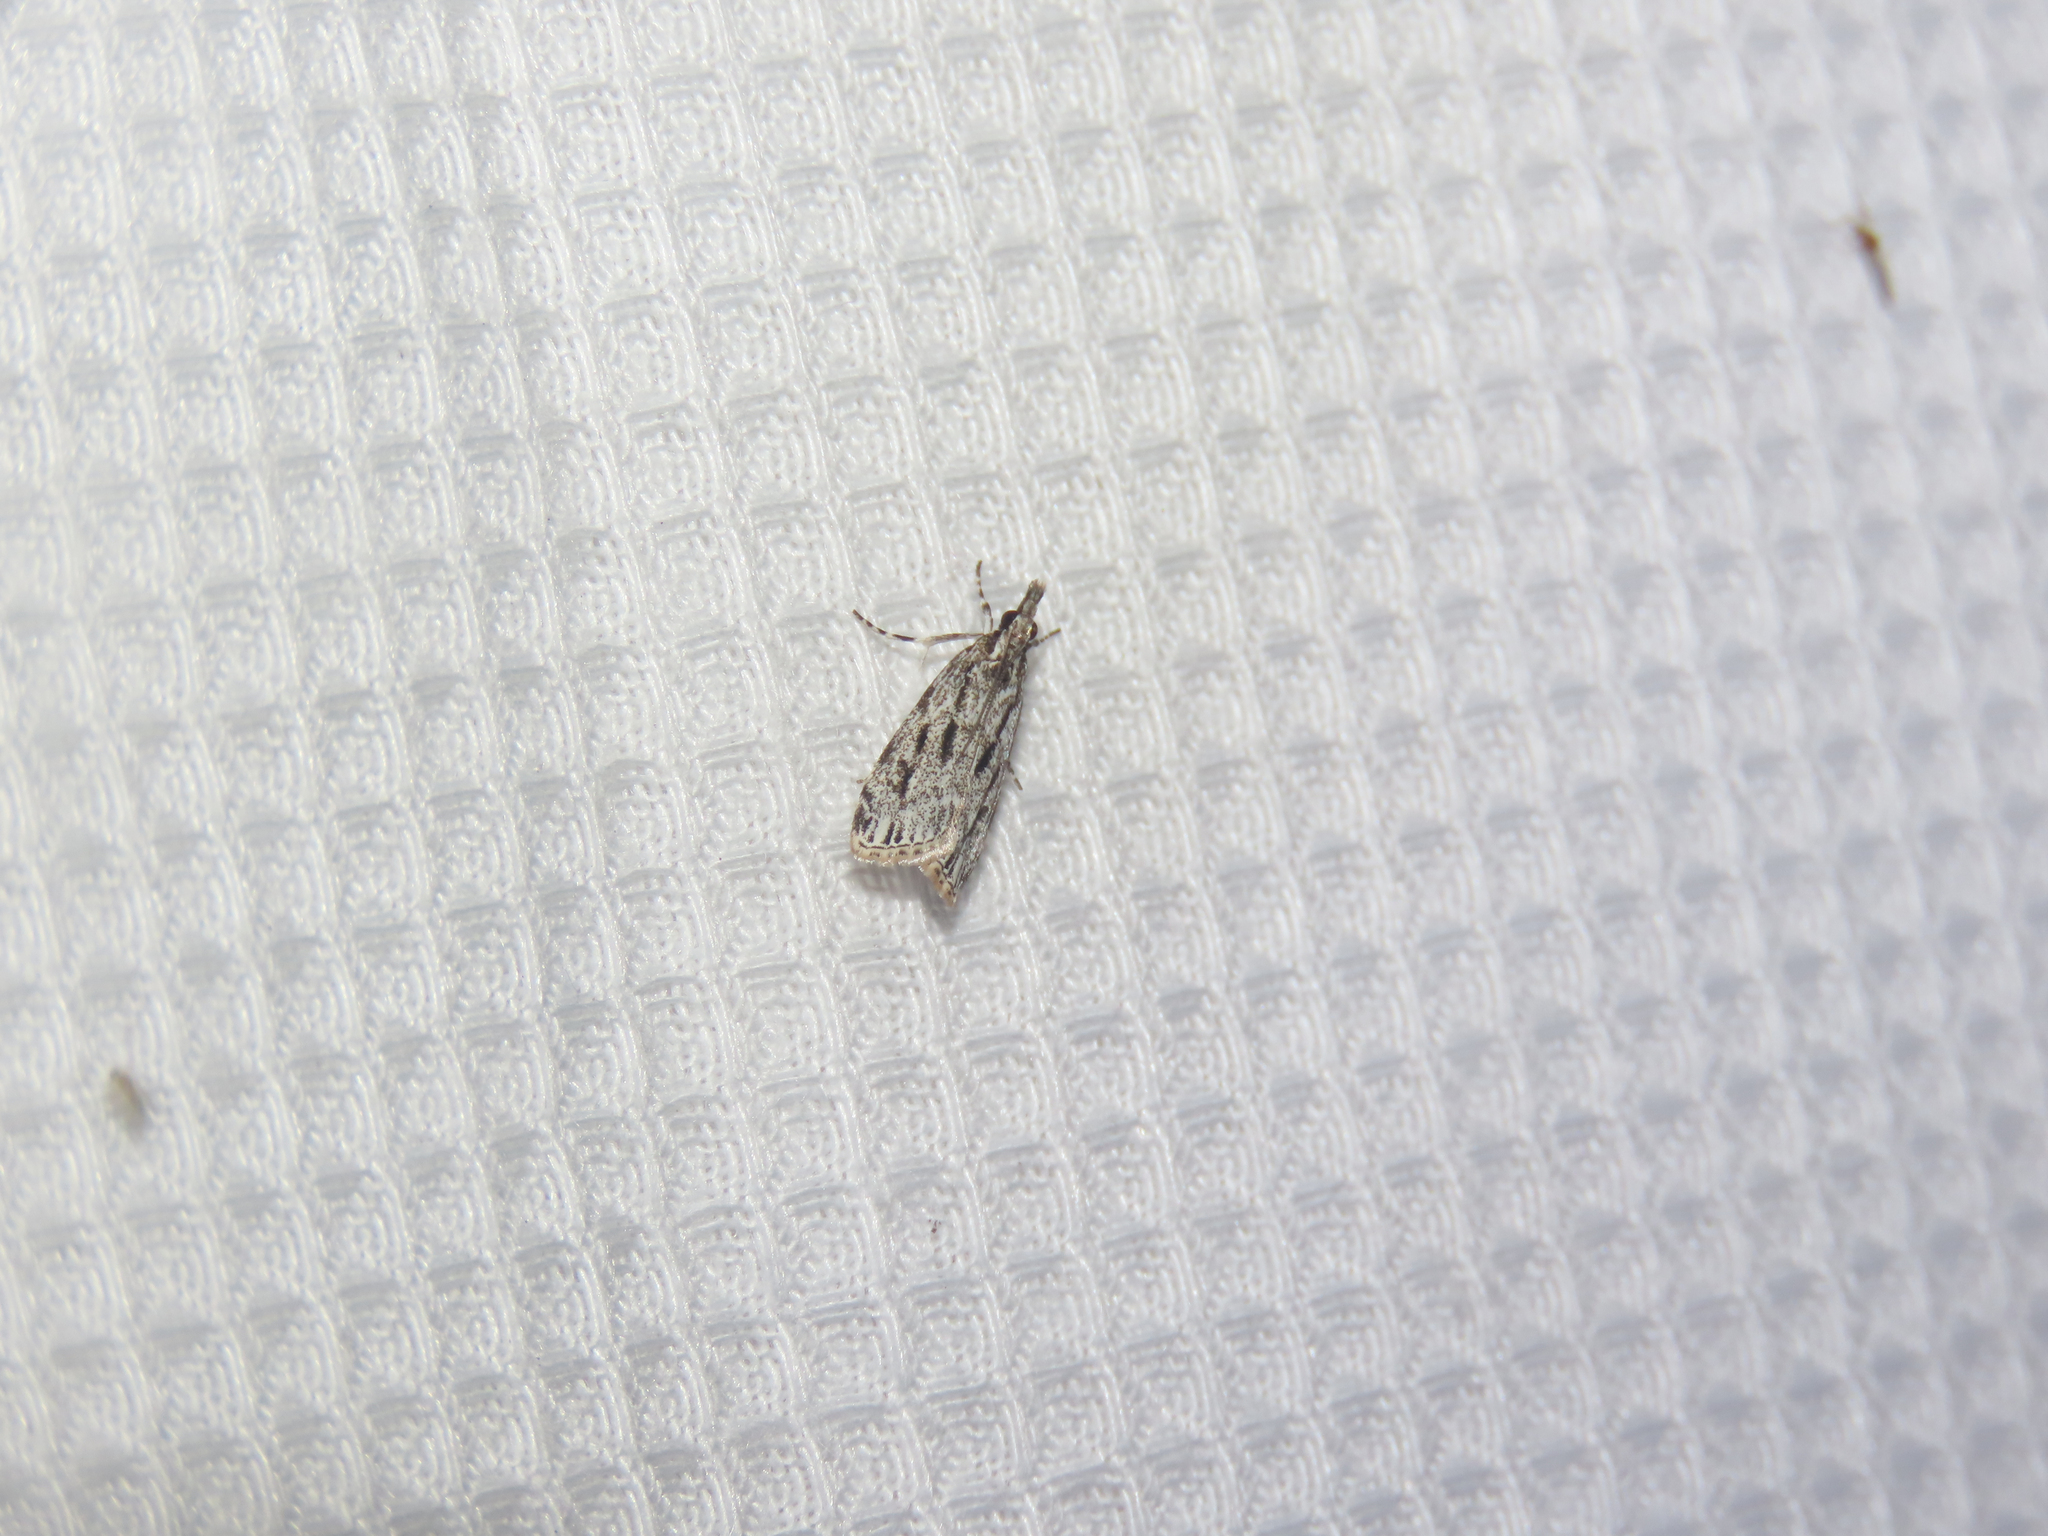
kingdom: Animalia
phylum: Arthropoda
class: Insecta
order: Lepidoptera
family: Crambidae
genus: Eudonia
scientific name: Eudonia strigalis
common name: Striped eudonia moth
